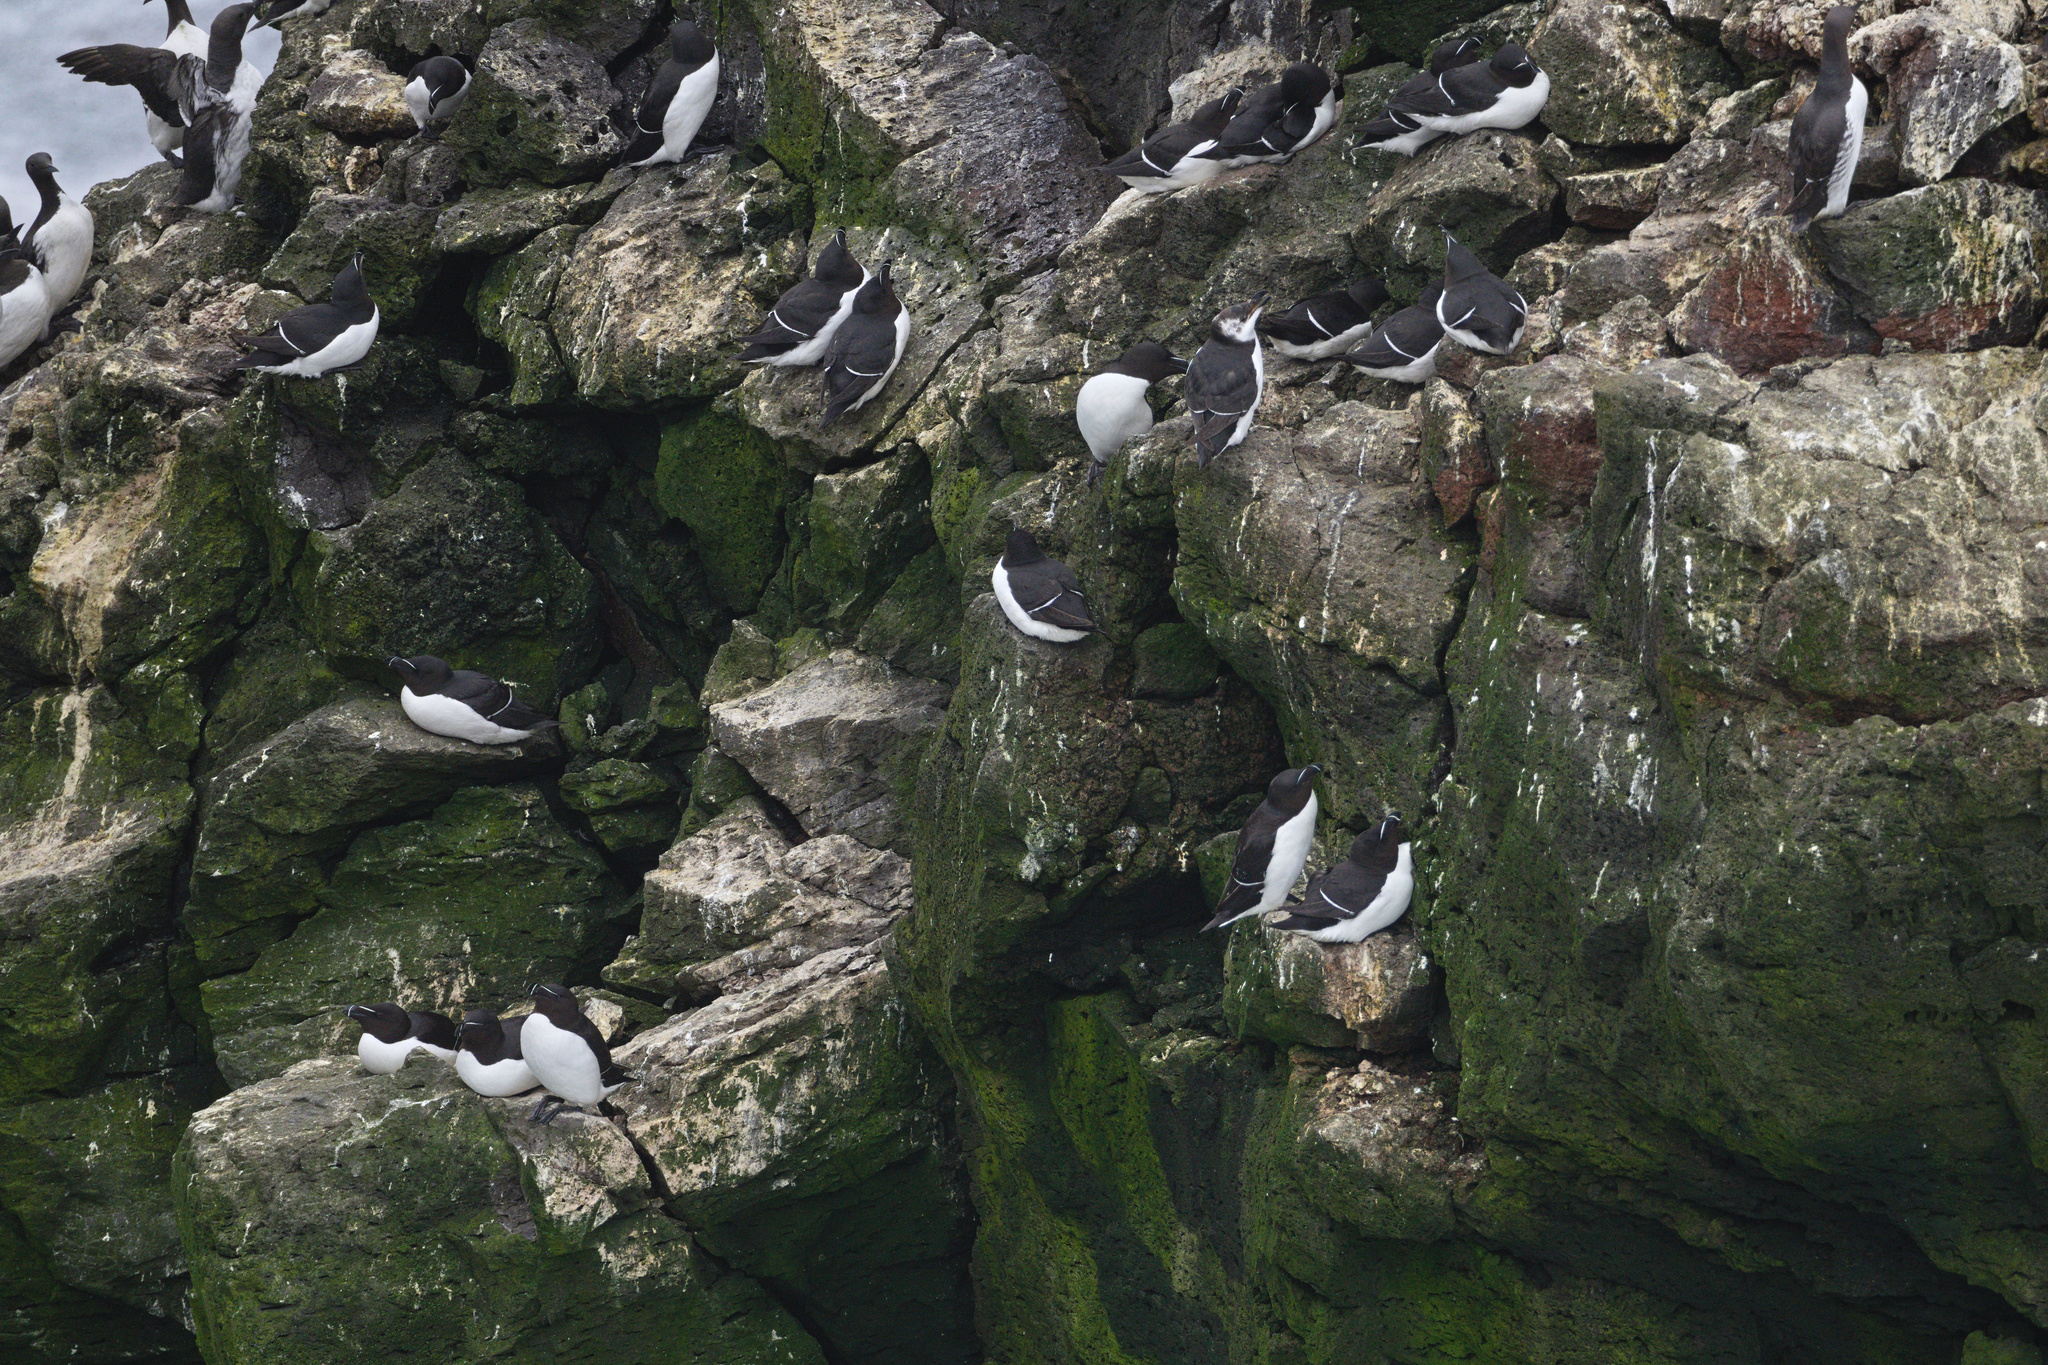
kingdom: Animalia
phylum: Chordata
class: Aves
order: Charadriiformes
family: Alcidae
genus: Alca
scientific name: Alca torda
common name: Razorbill
